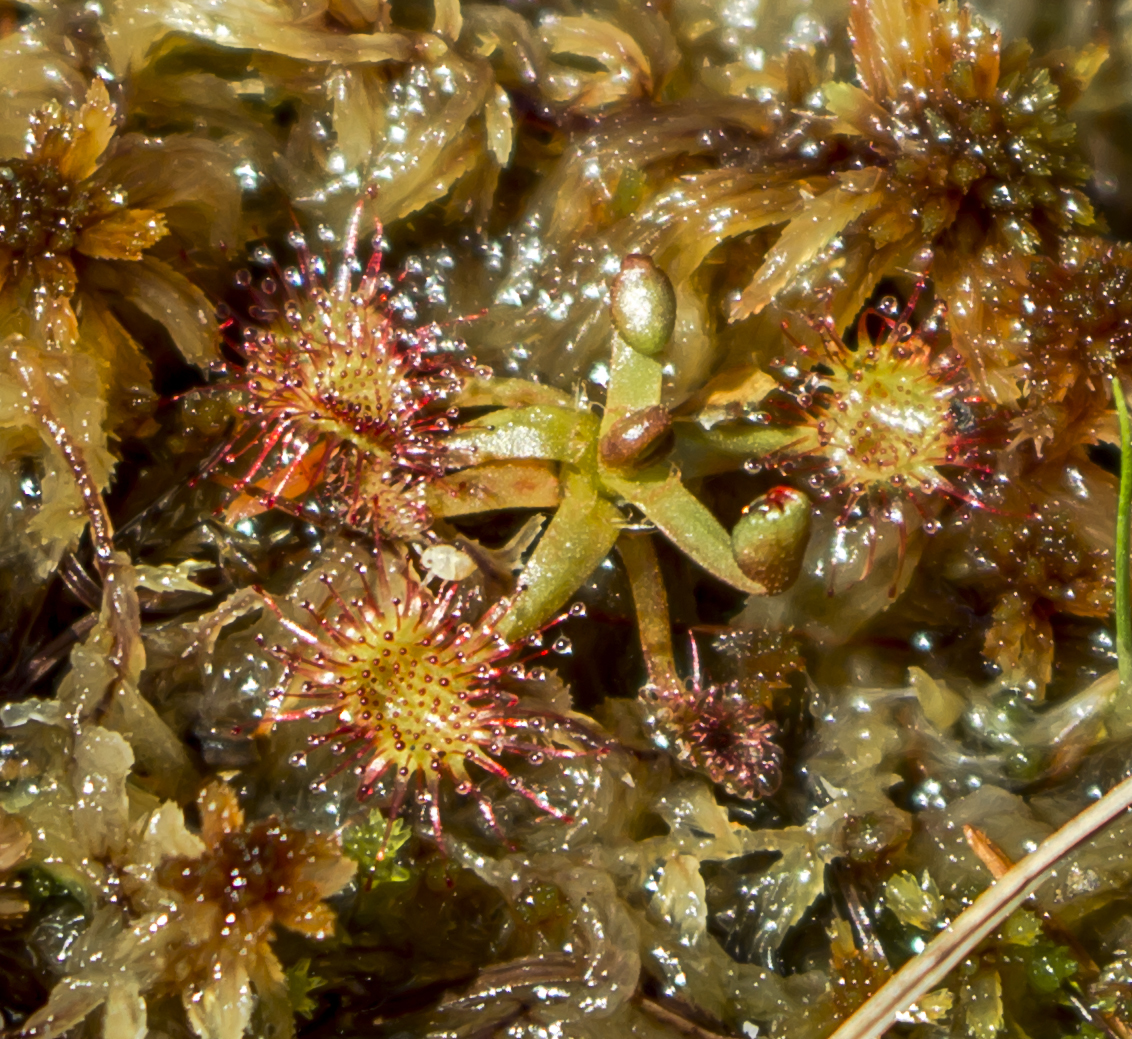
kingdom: Plantae
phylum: Tracheophyta
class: Magnoliopsida
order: Caryophyllales
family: Droseraceae
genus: Drosera
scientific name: Drosera rotundifolia
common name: Round-leaved sundew
